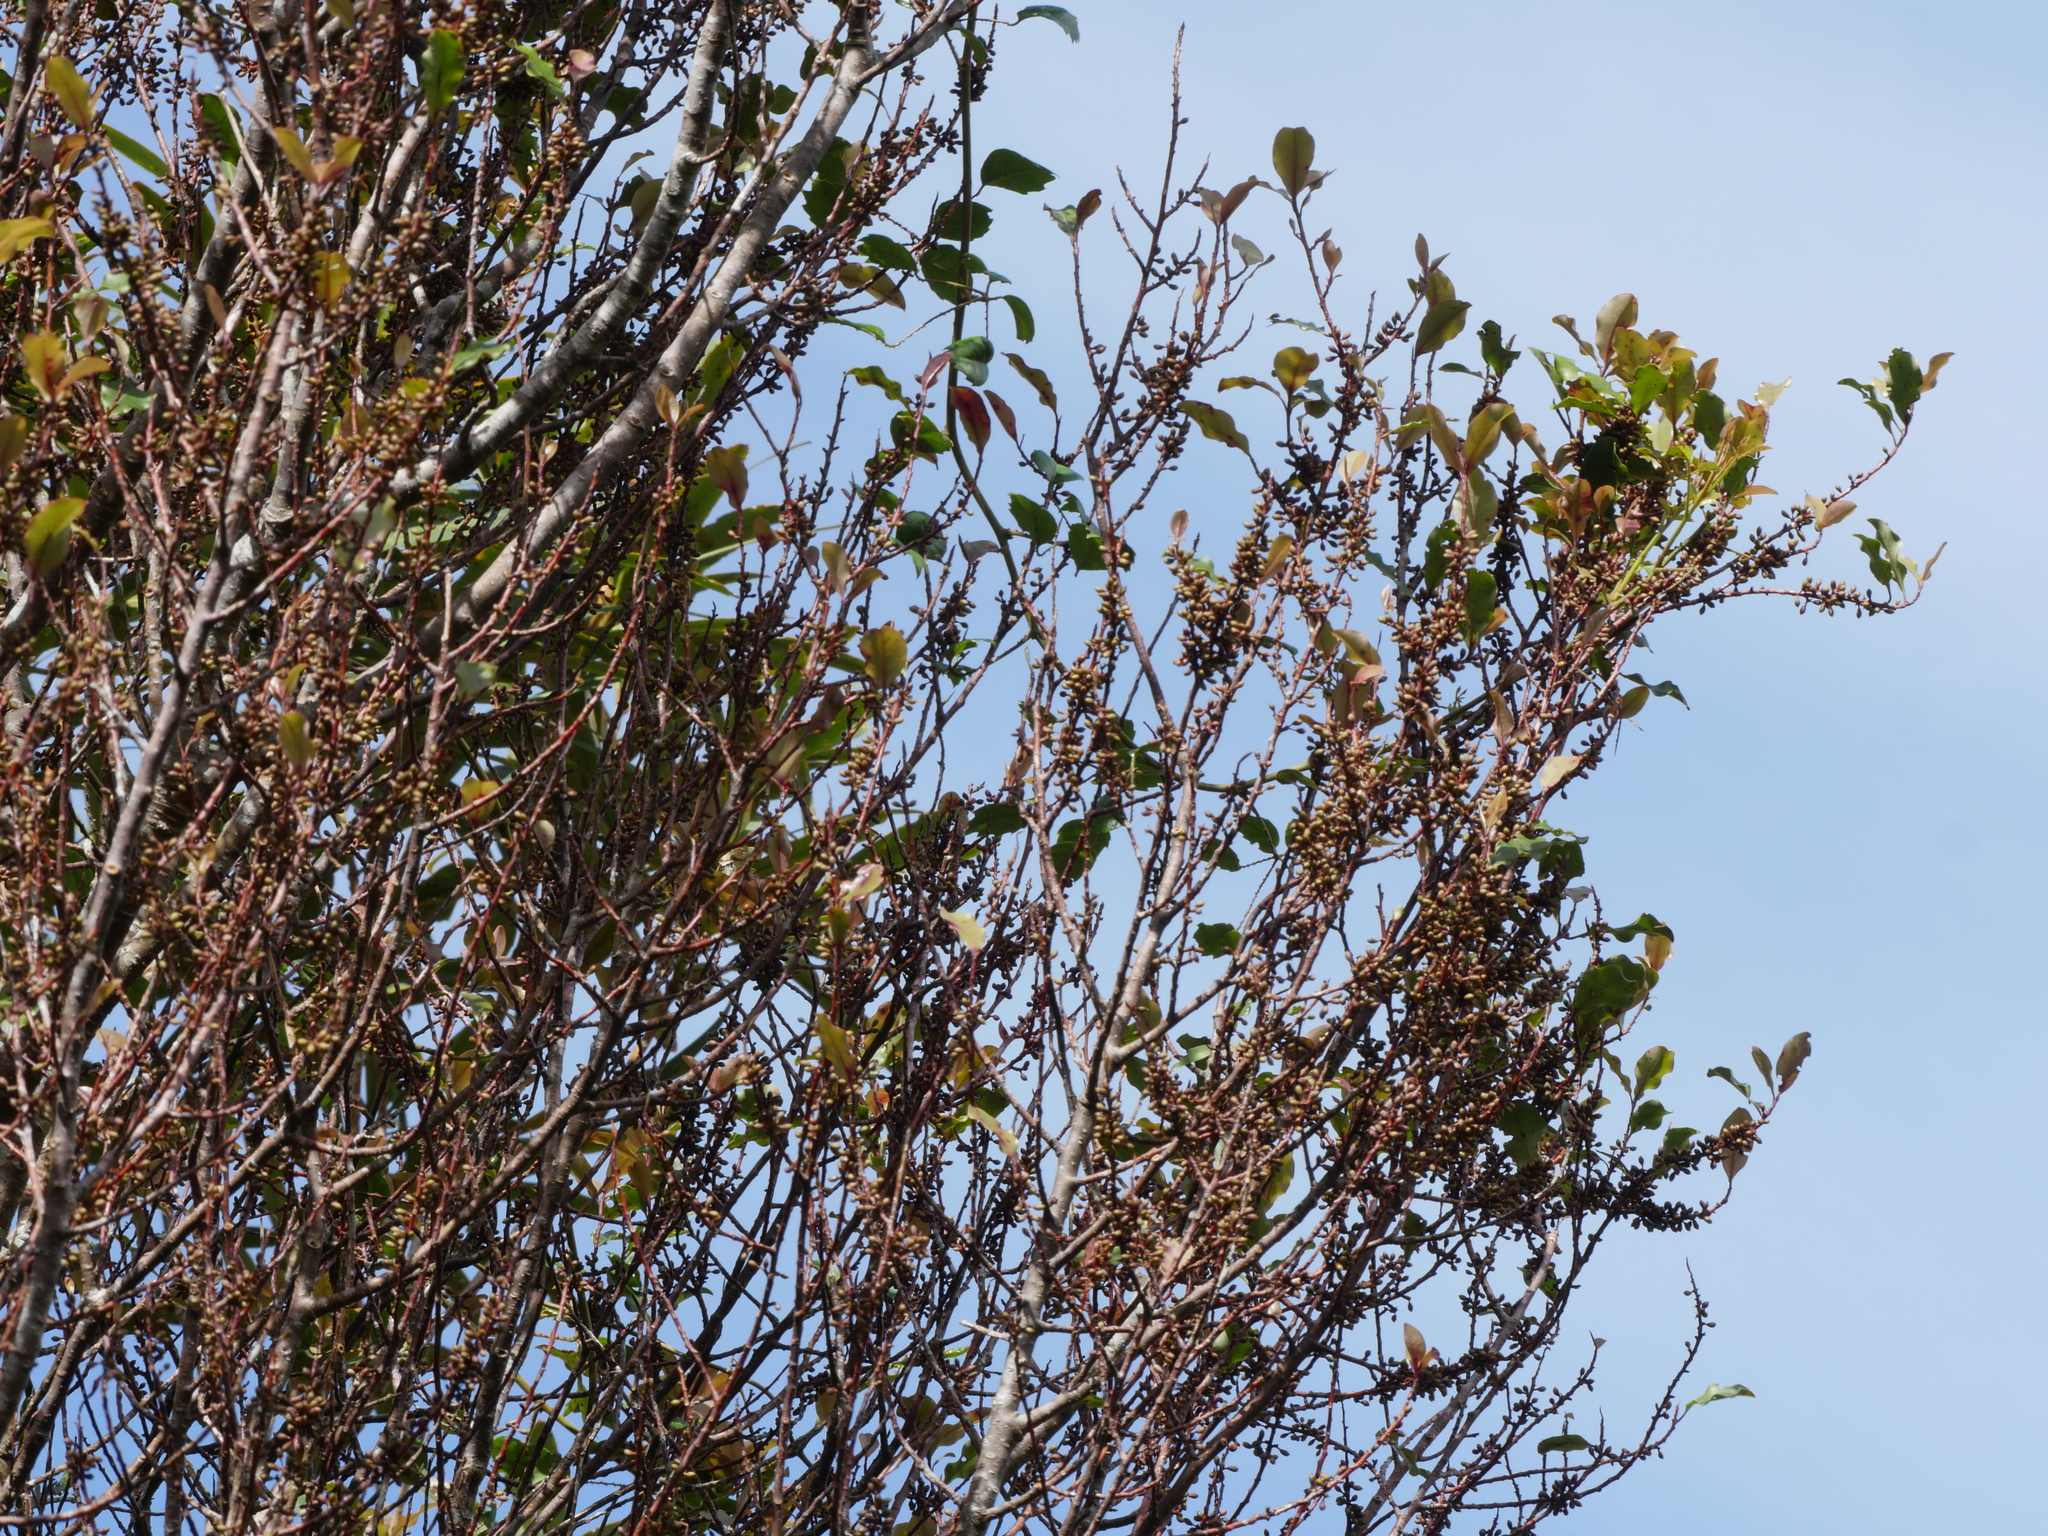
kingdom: Plantae
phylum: Tracheophyta
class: Magnoliopsida
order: Ericales
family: Primulaceae
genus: Myrsine
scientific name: Myrsine australis
